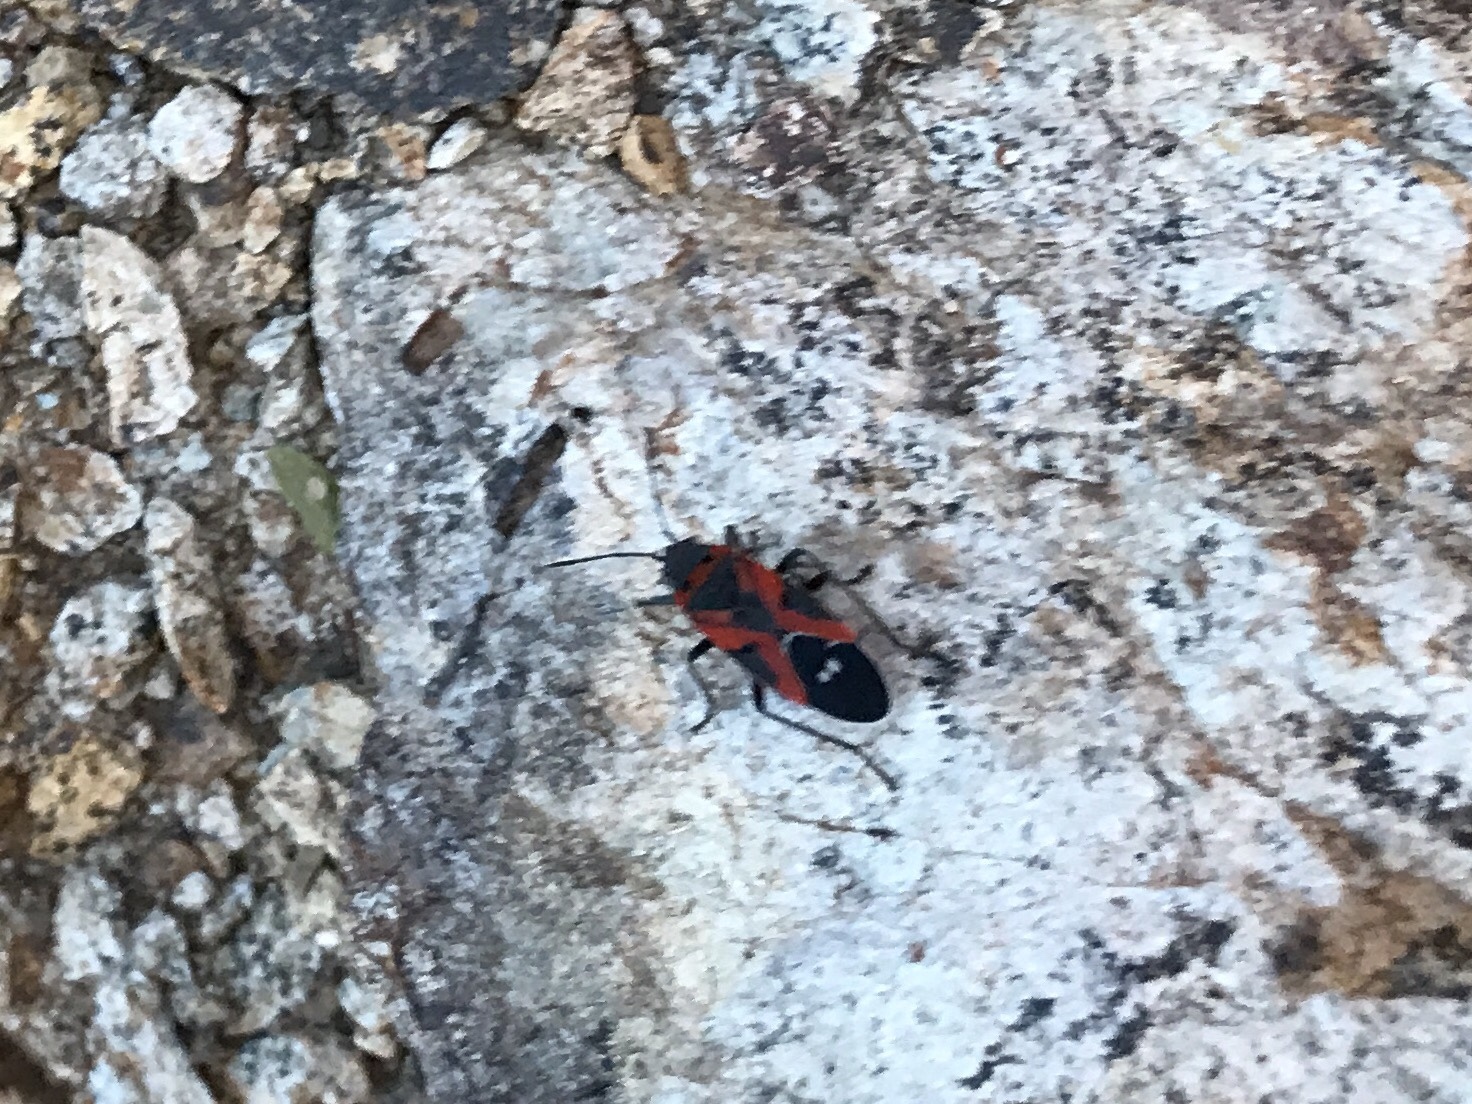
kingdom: Animalia
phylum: Arthropoda
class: Insecta
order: Hemiptera
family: Lygaeidae
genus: Lygaeus
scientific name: Lygaeus reclivatus
